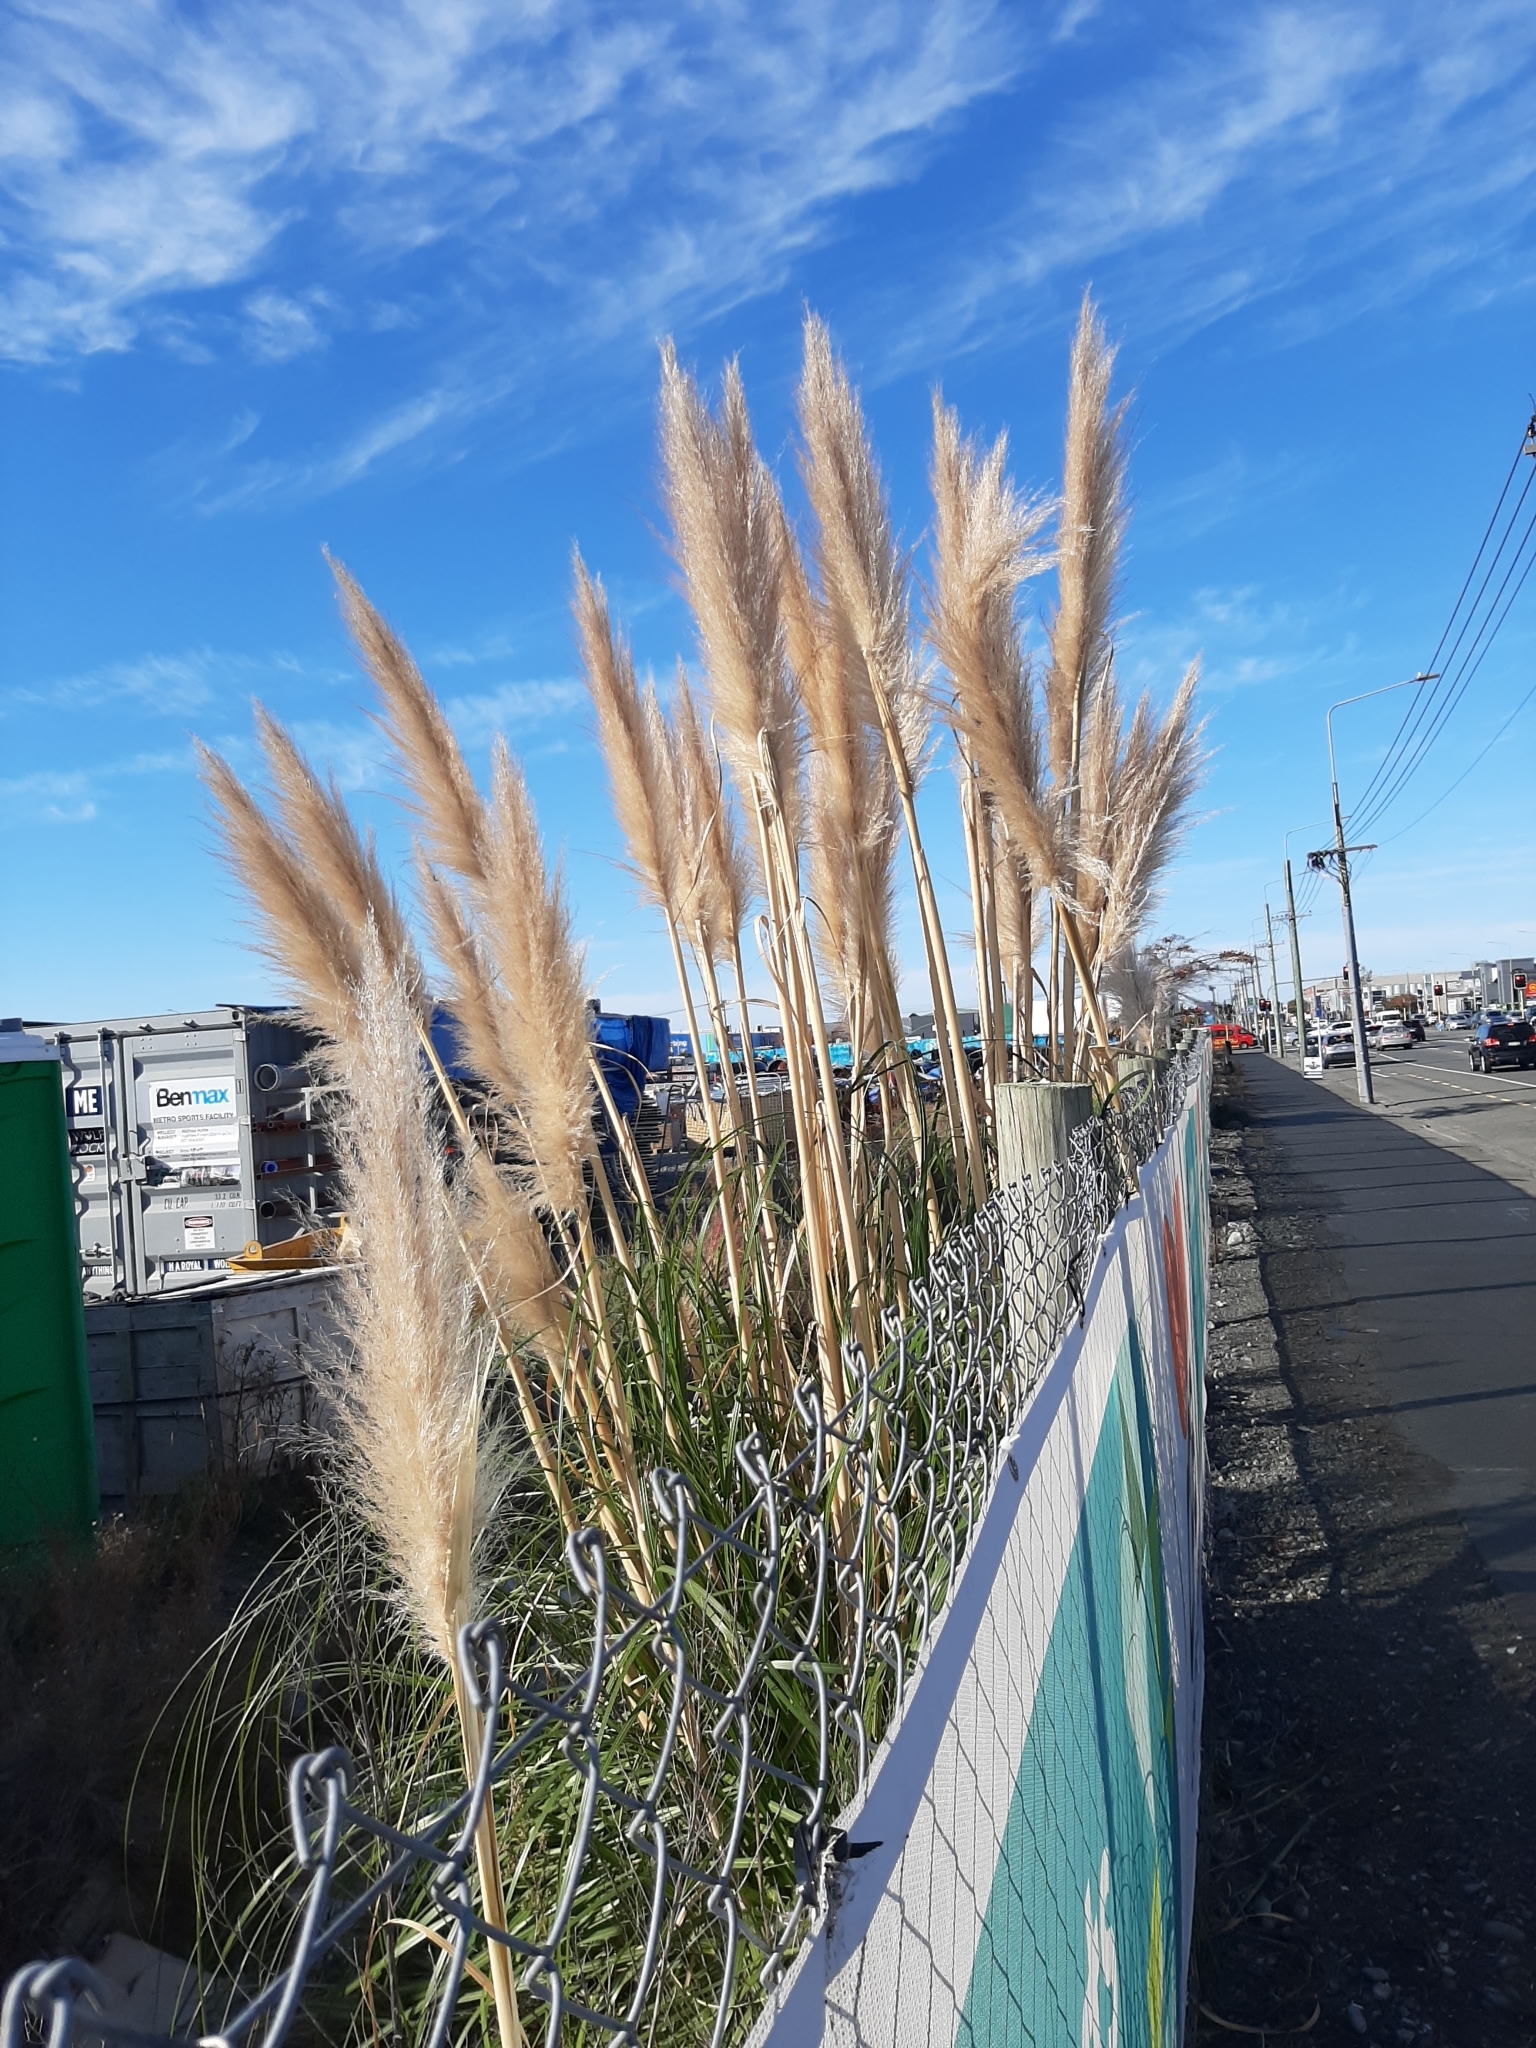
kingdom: Plantae
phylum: Tracheophyta
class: Liliopsida
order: Poales
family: Poaceae
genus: Cortaderia
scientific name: Cortaderia selloana
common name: Uruguayan pampas grass
